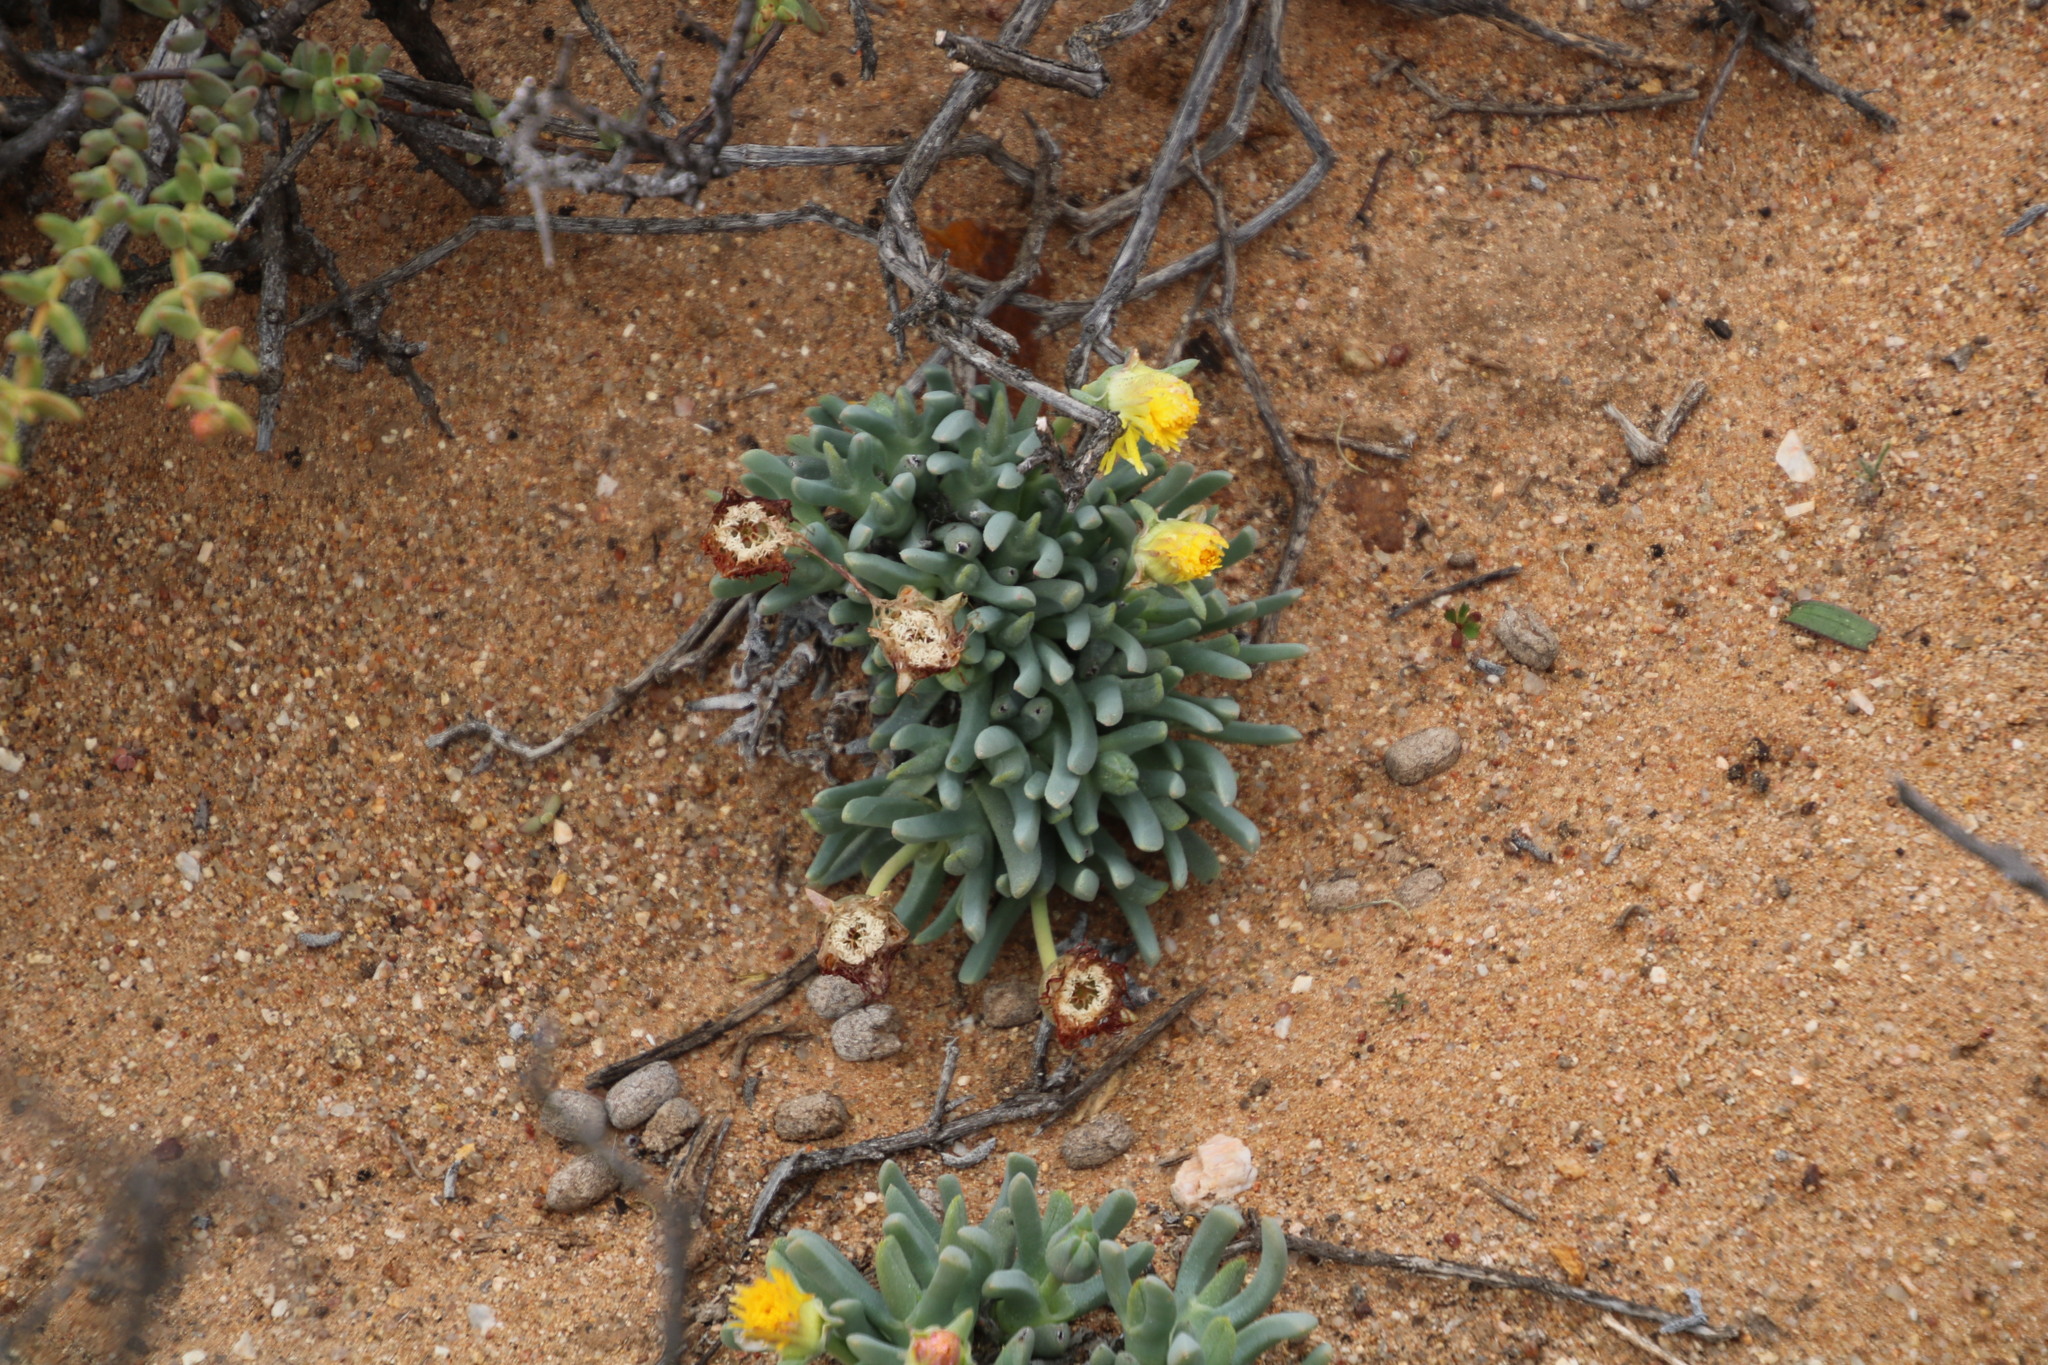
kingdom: Plantae
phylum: Tracheophyta
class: Magnoliopsida
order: Caryophyllales
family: Aizoaceae
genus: Cheiridopsis
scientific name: Cheiridopsis namaquensis
